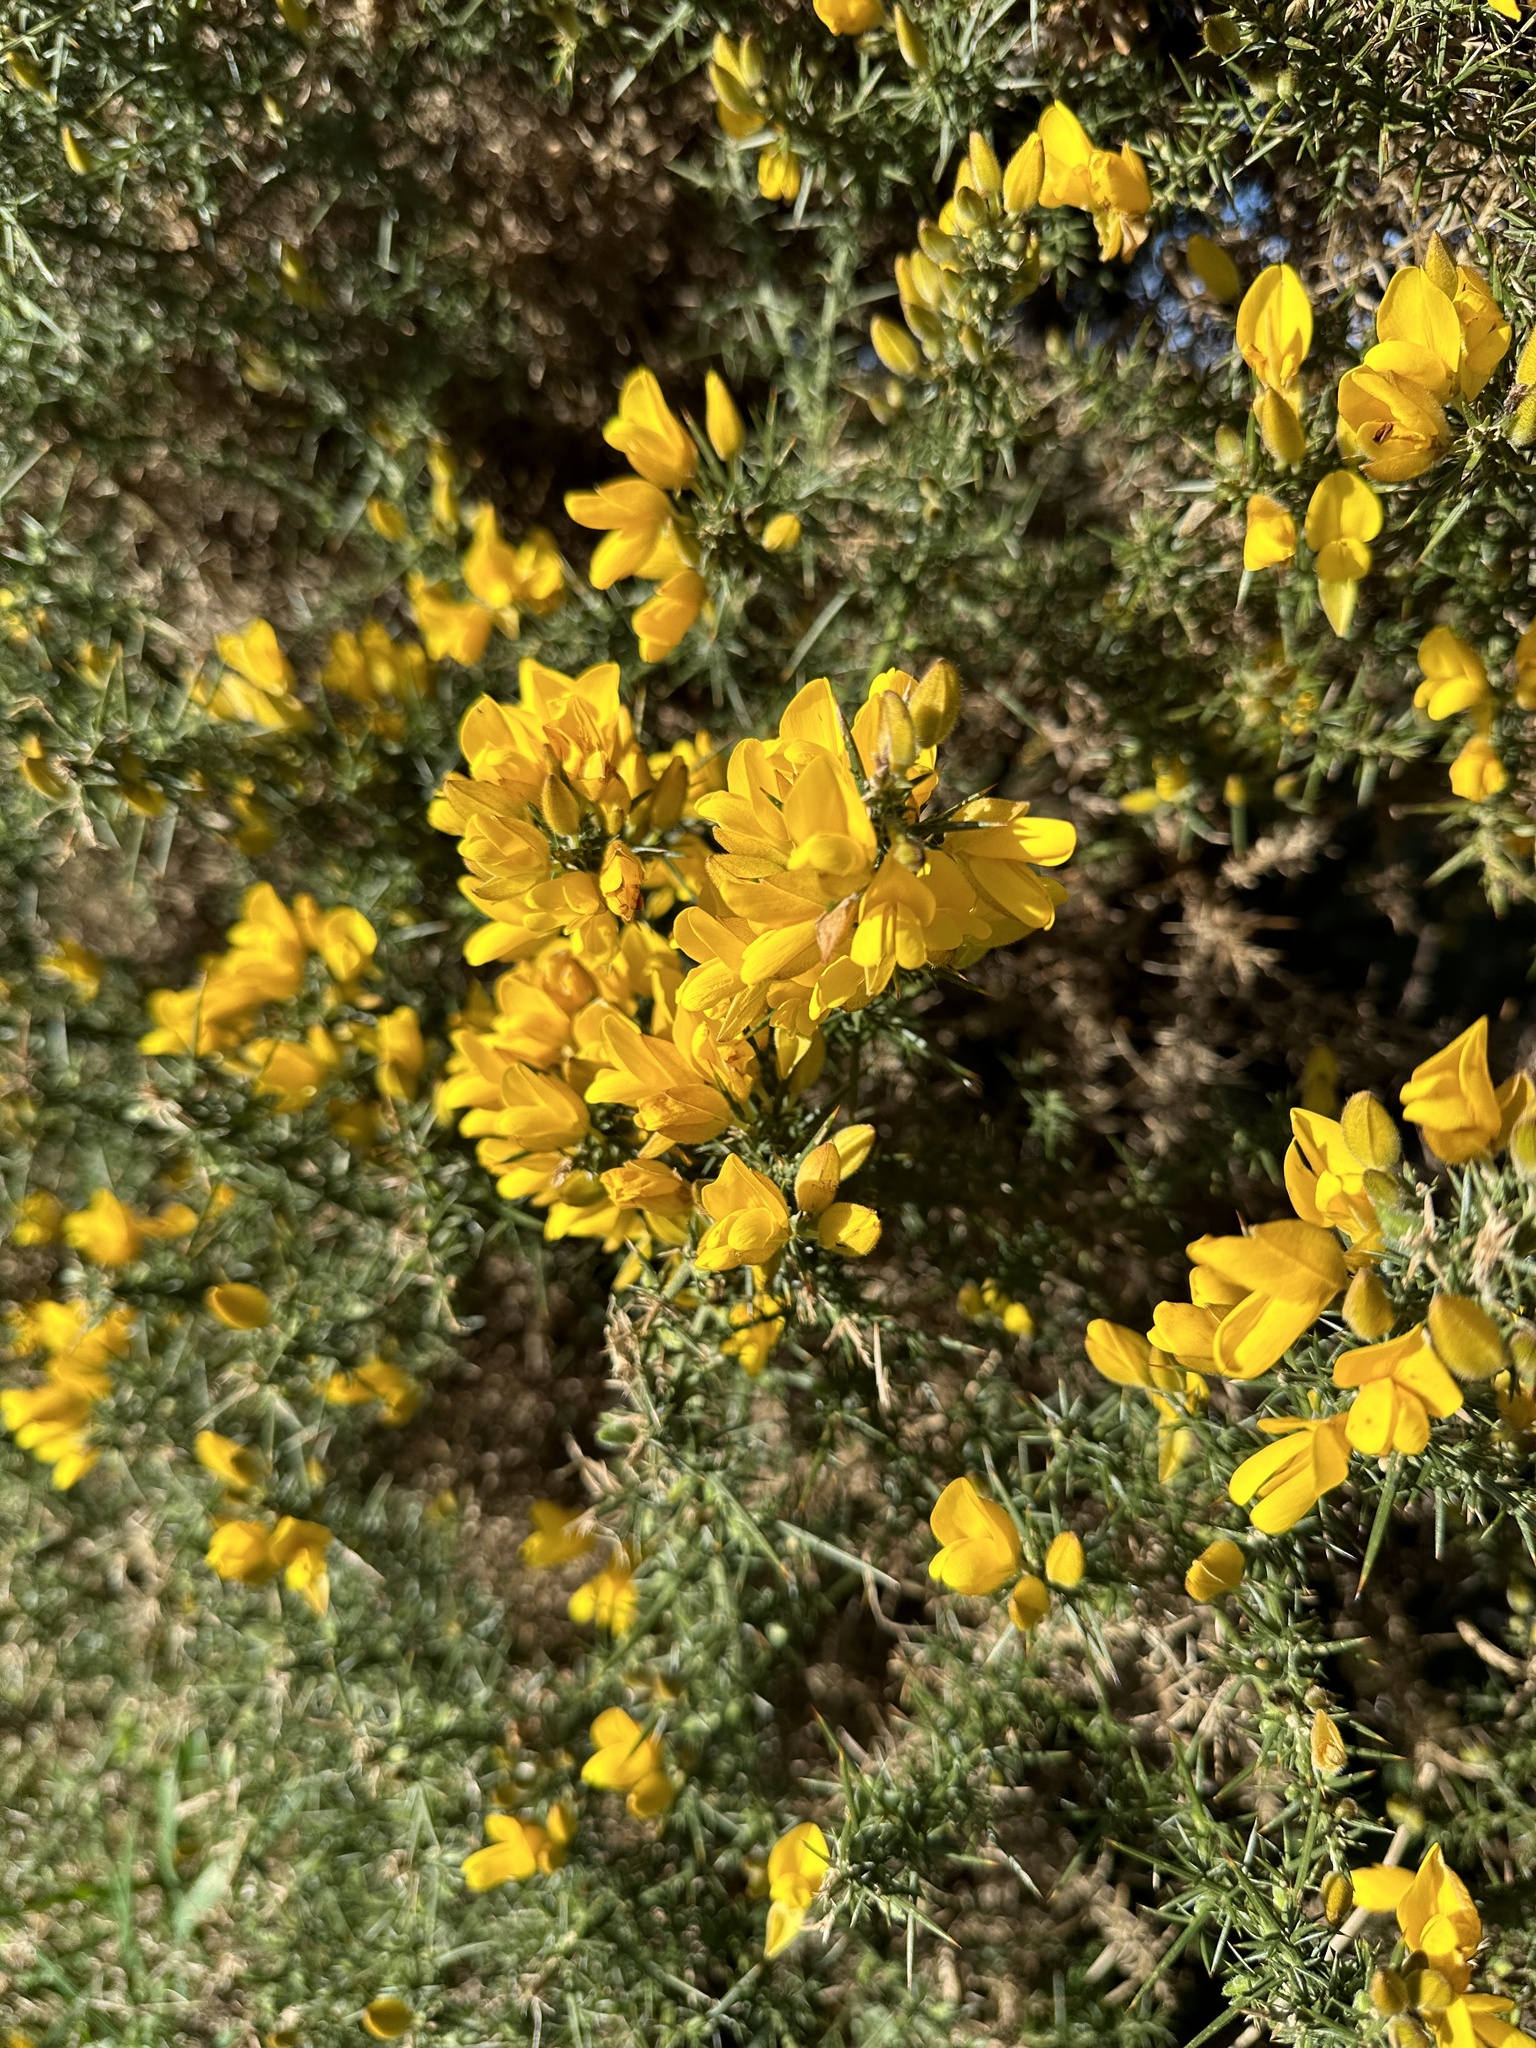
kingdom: Plantae
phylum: Tracheophyta
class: Magnoliopsida
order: Fabales
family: Fabaceae
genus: Ulex
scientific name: Ulex europaeus
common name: Common gorse
